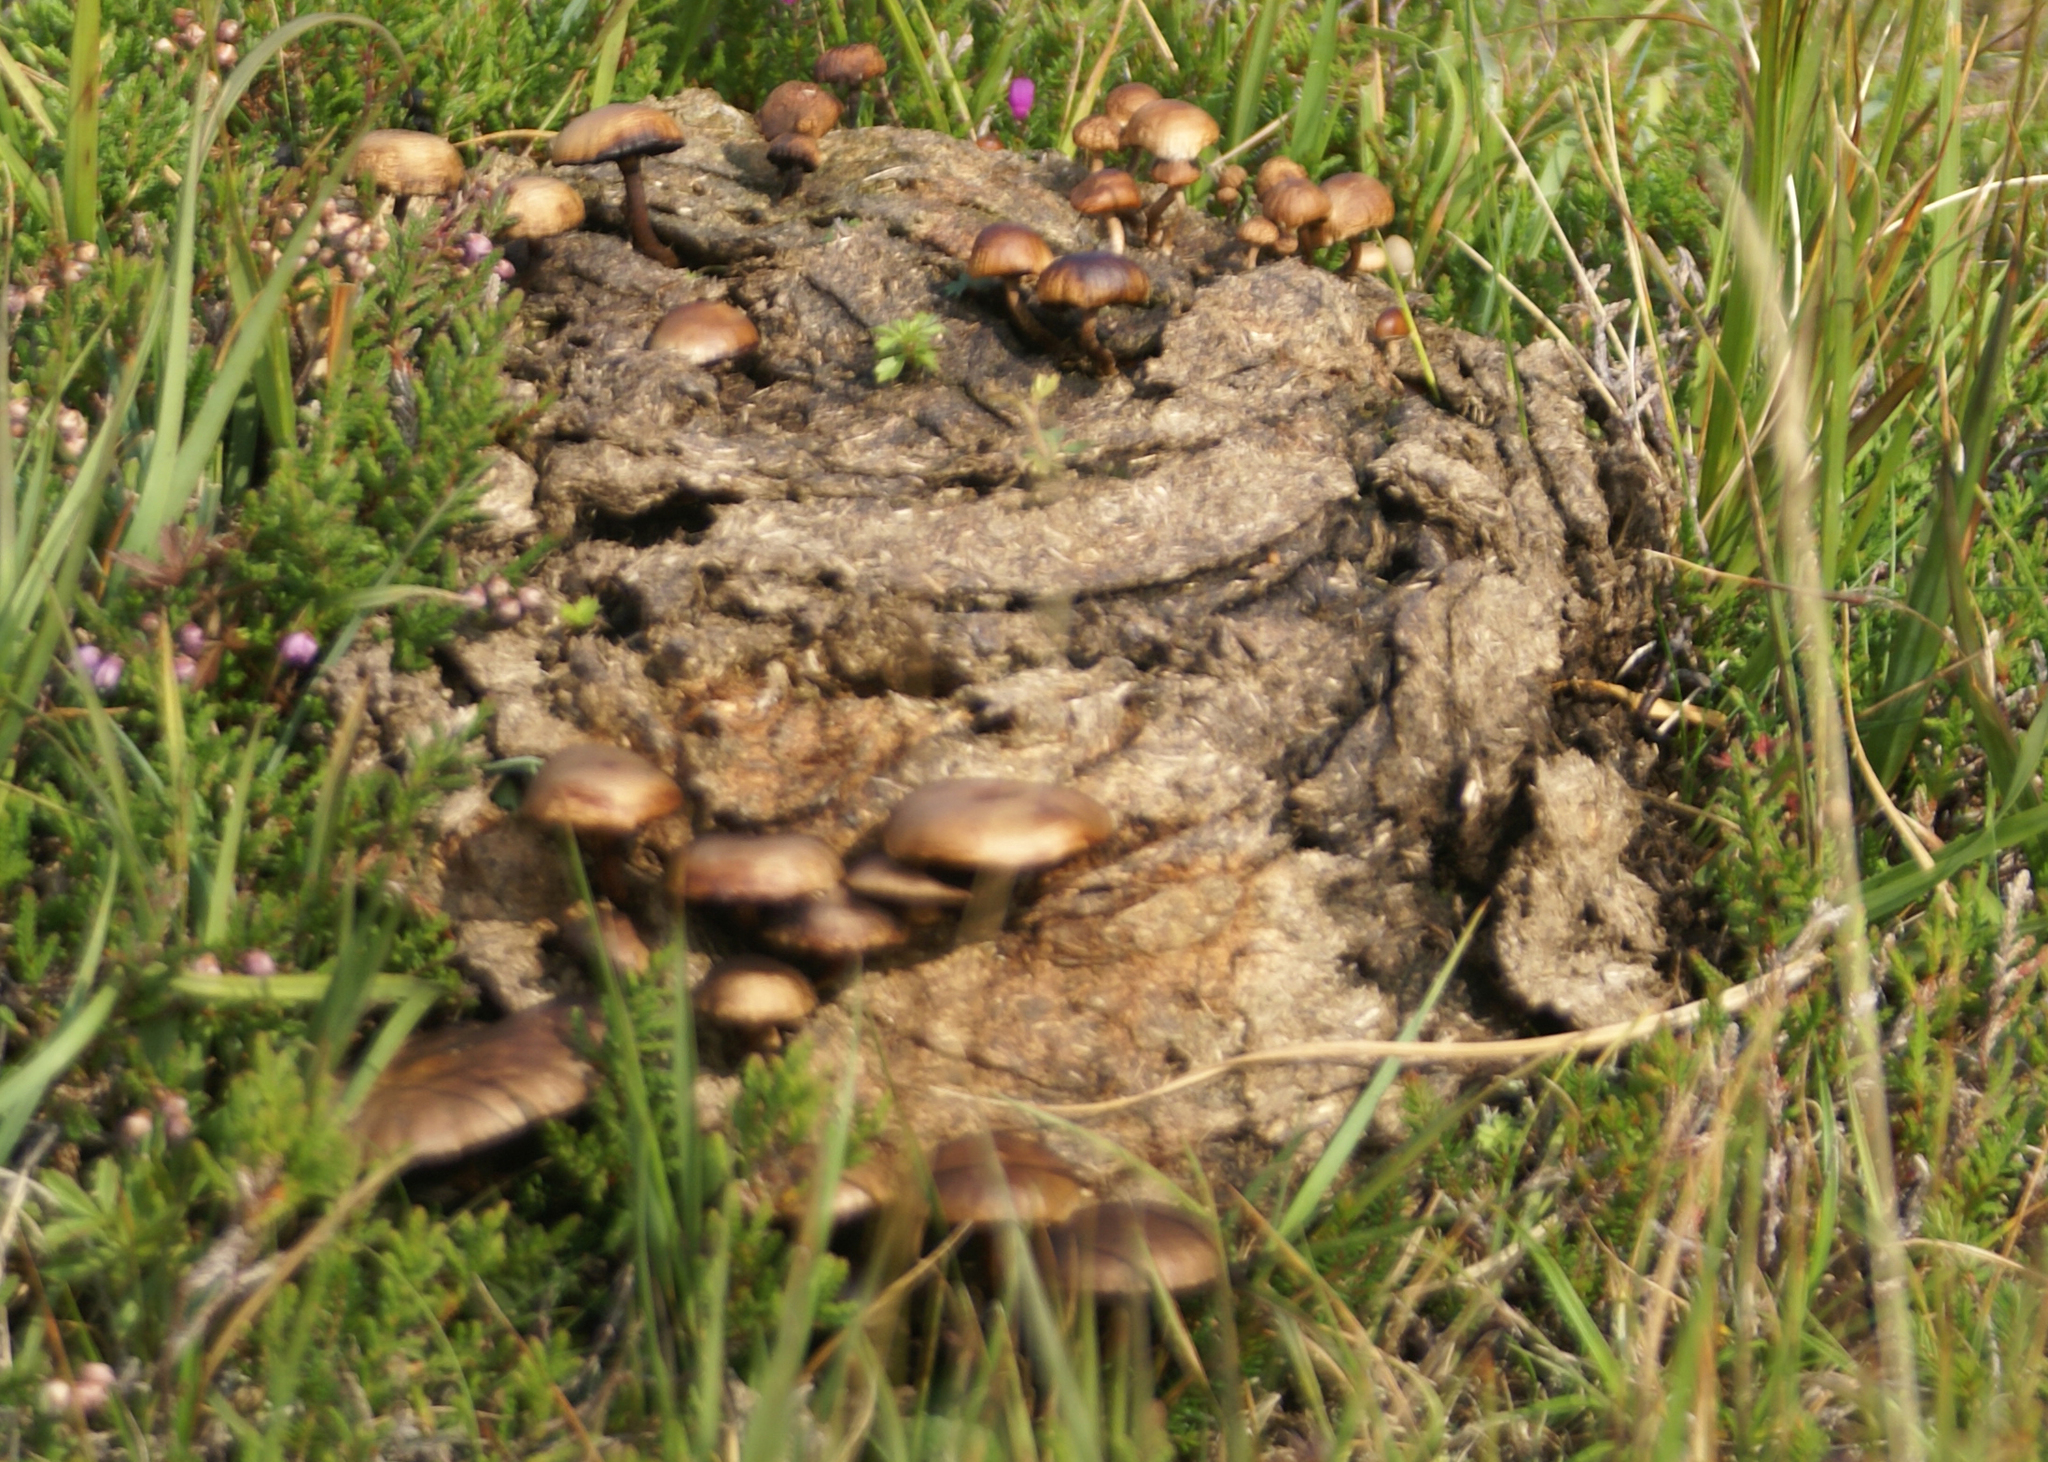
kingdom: Fungi
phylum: Basidiomycota
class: Agaricomycetes
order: Agaricales
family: Strophariaceae
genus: Deconica
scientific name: Deconica coprophila
